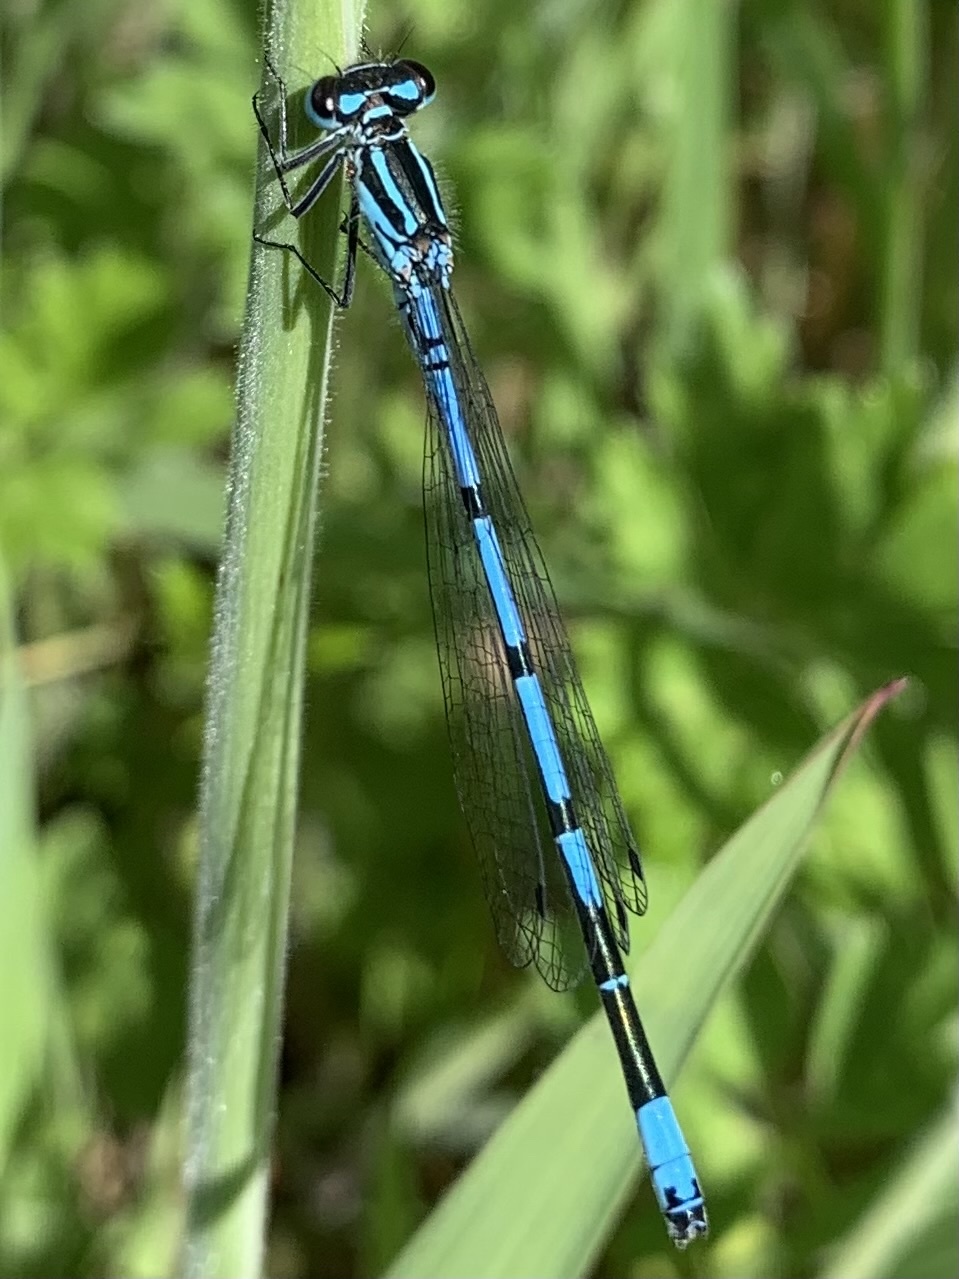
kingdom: Animalia
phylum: Arthropoda
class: Insecta
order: Odonata
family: Coenagrionidae
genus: Coenagrion
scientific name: Coenagrion puella
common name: Azure damselfly
